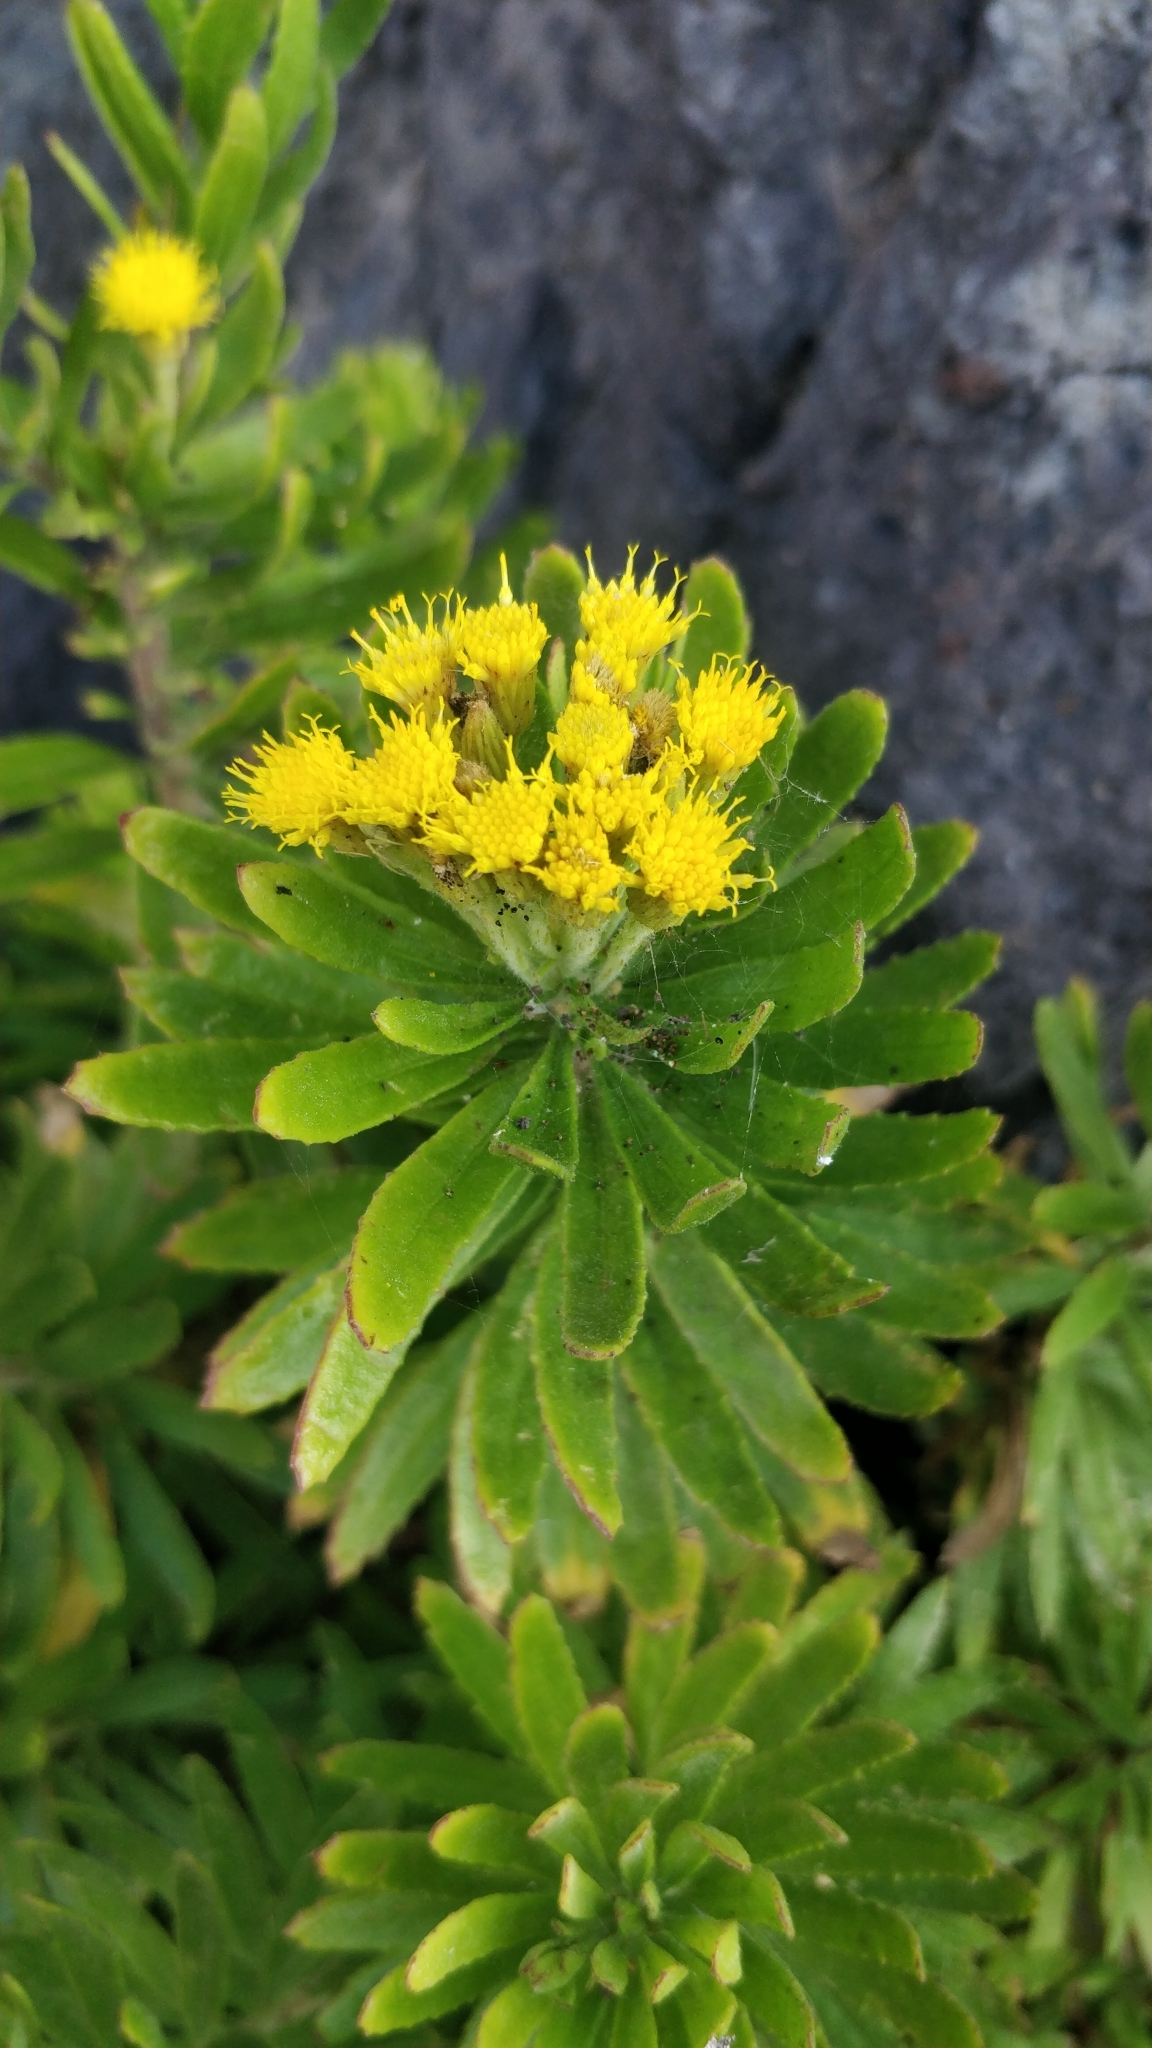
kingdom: Plantae
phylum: Tracheophyta
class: Magnoliopsida
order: Asterales
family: Asteraceae
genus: Allagopappus
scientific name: Allagopappus canariensis
